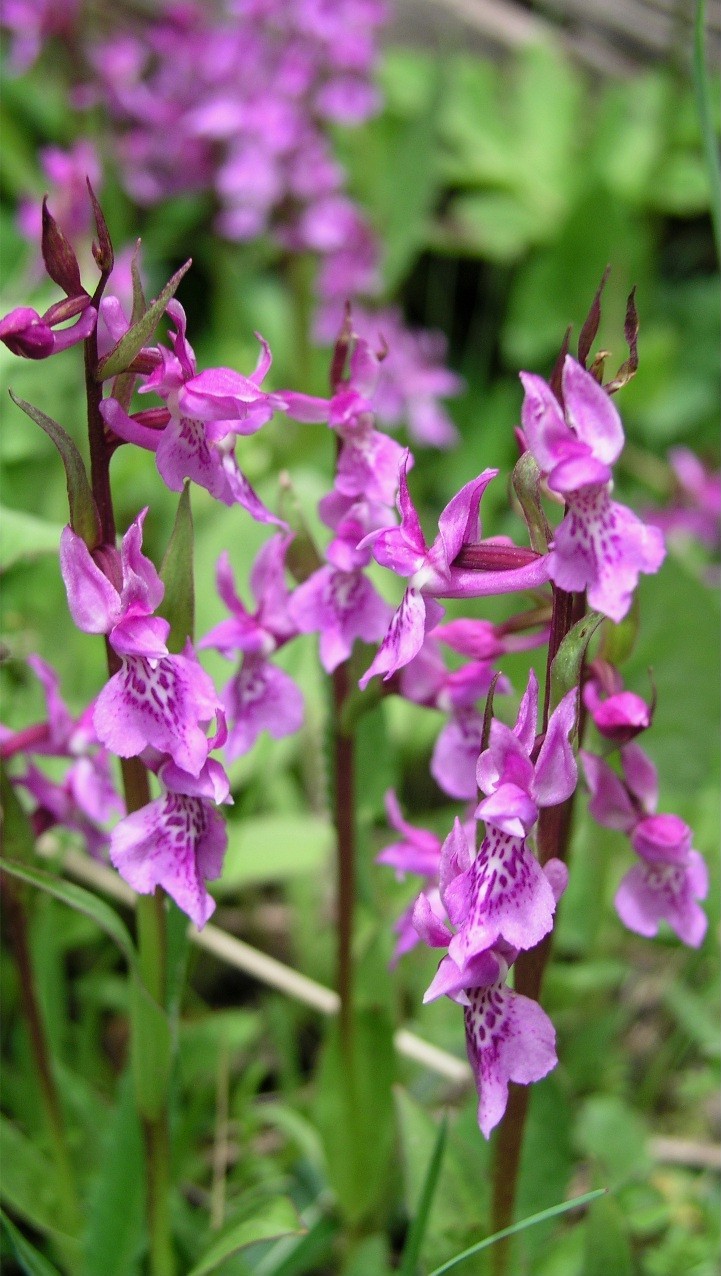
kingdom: Plantae
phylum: Tracheophyta
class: Liliopsida
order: Asparagales
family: Orchidaceae
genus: Hemipilia
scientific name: Hemipilia chusua
